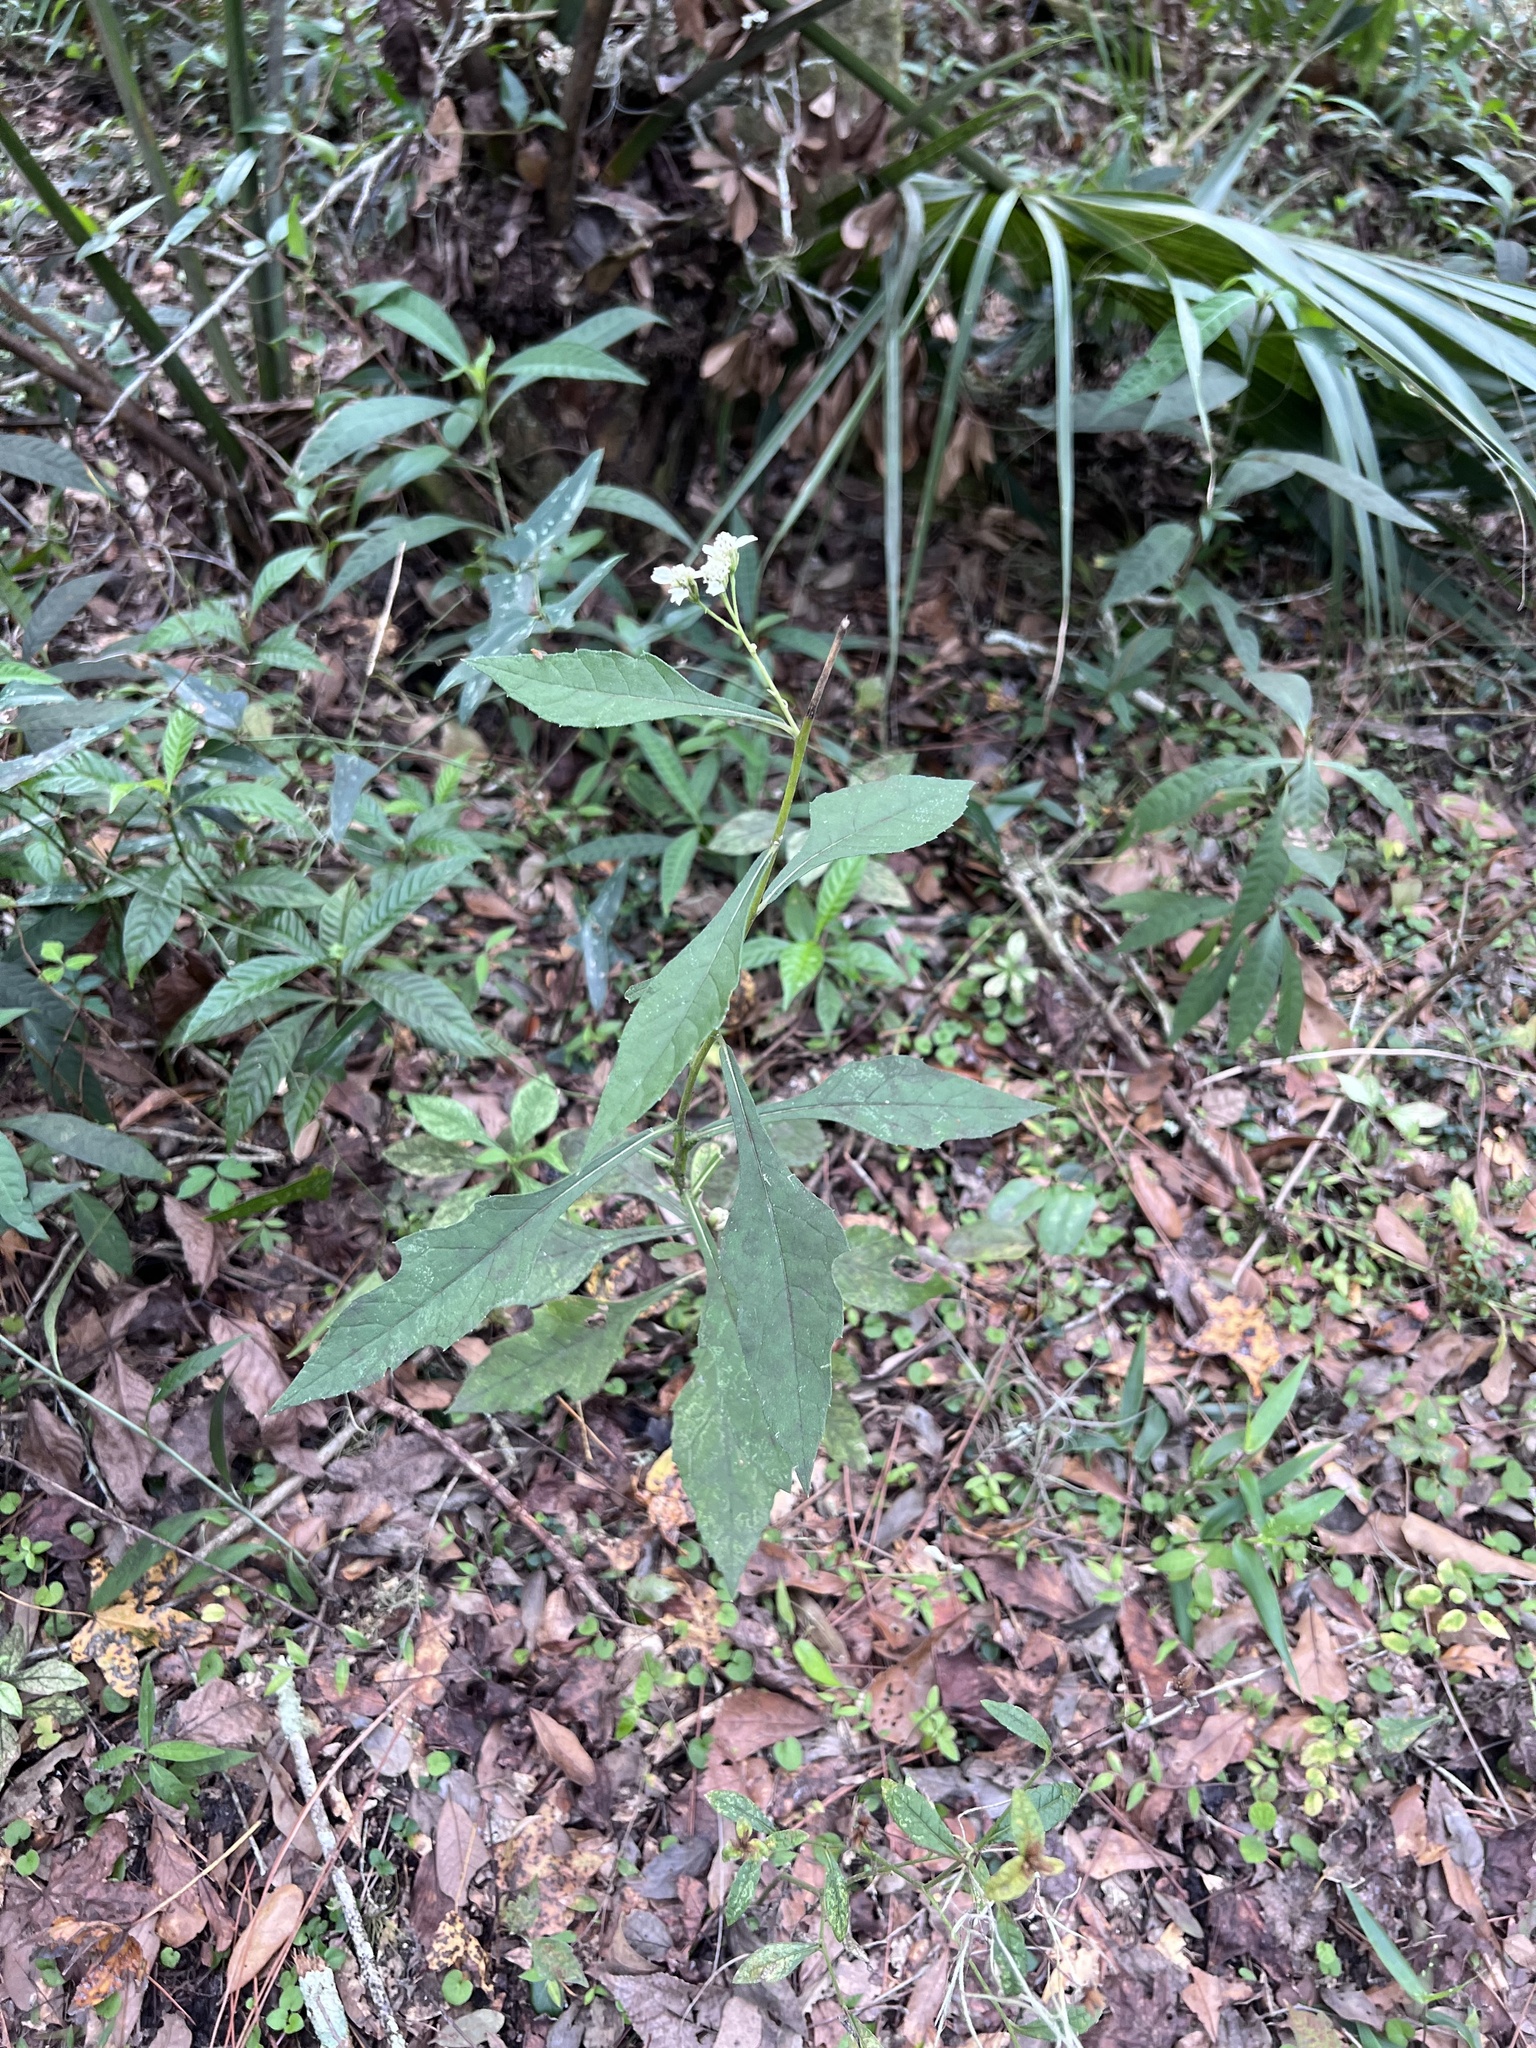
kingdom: Plantae
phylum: Tracheophyta
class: Magnoliopsida
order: Asterales
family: Asteraceae
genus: Verbesina
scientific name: Verbesina virginica
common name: Frostweed
